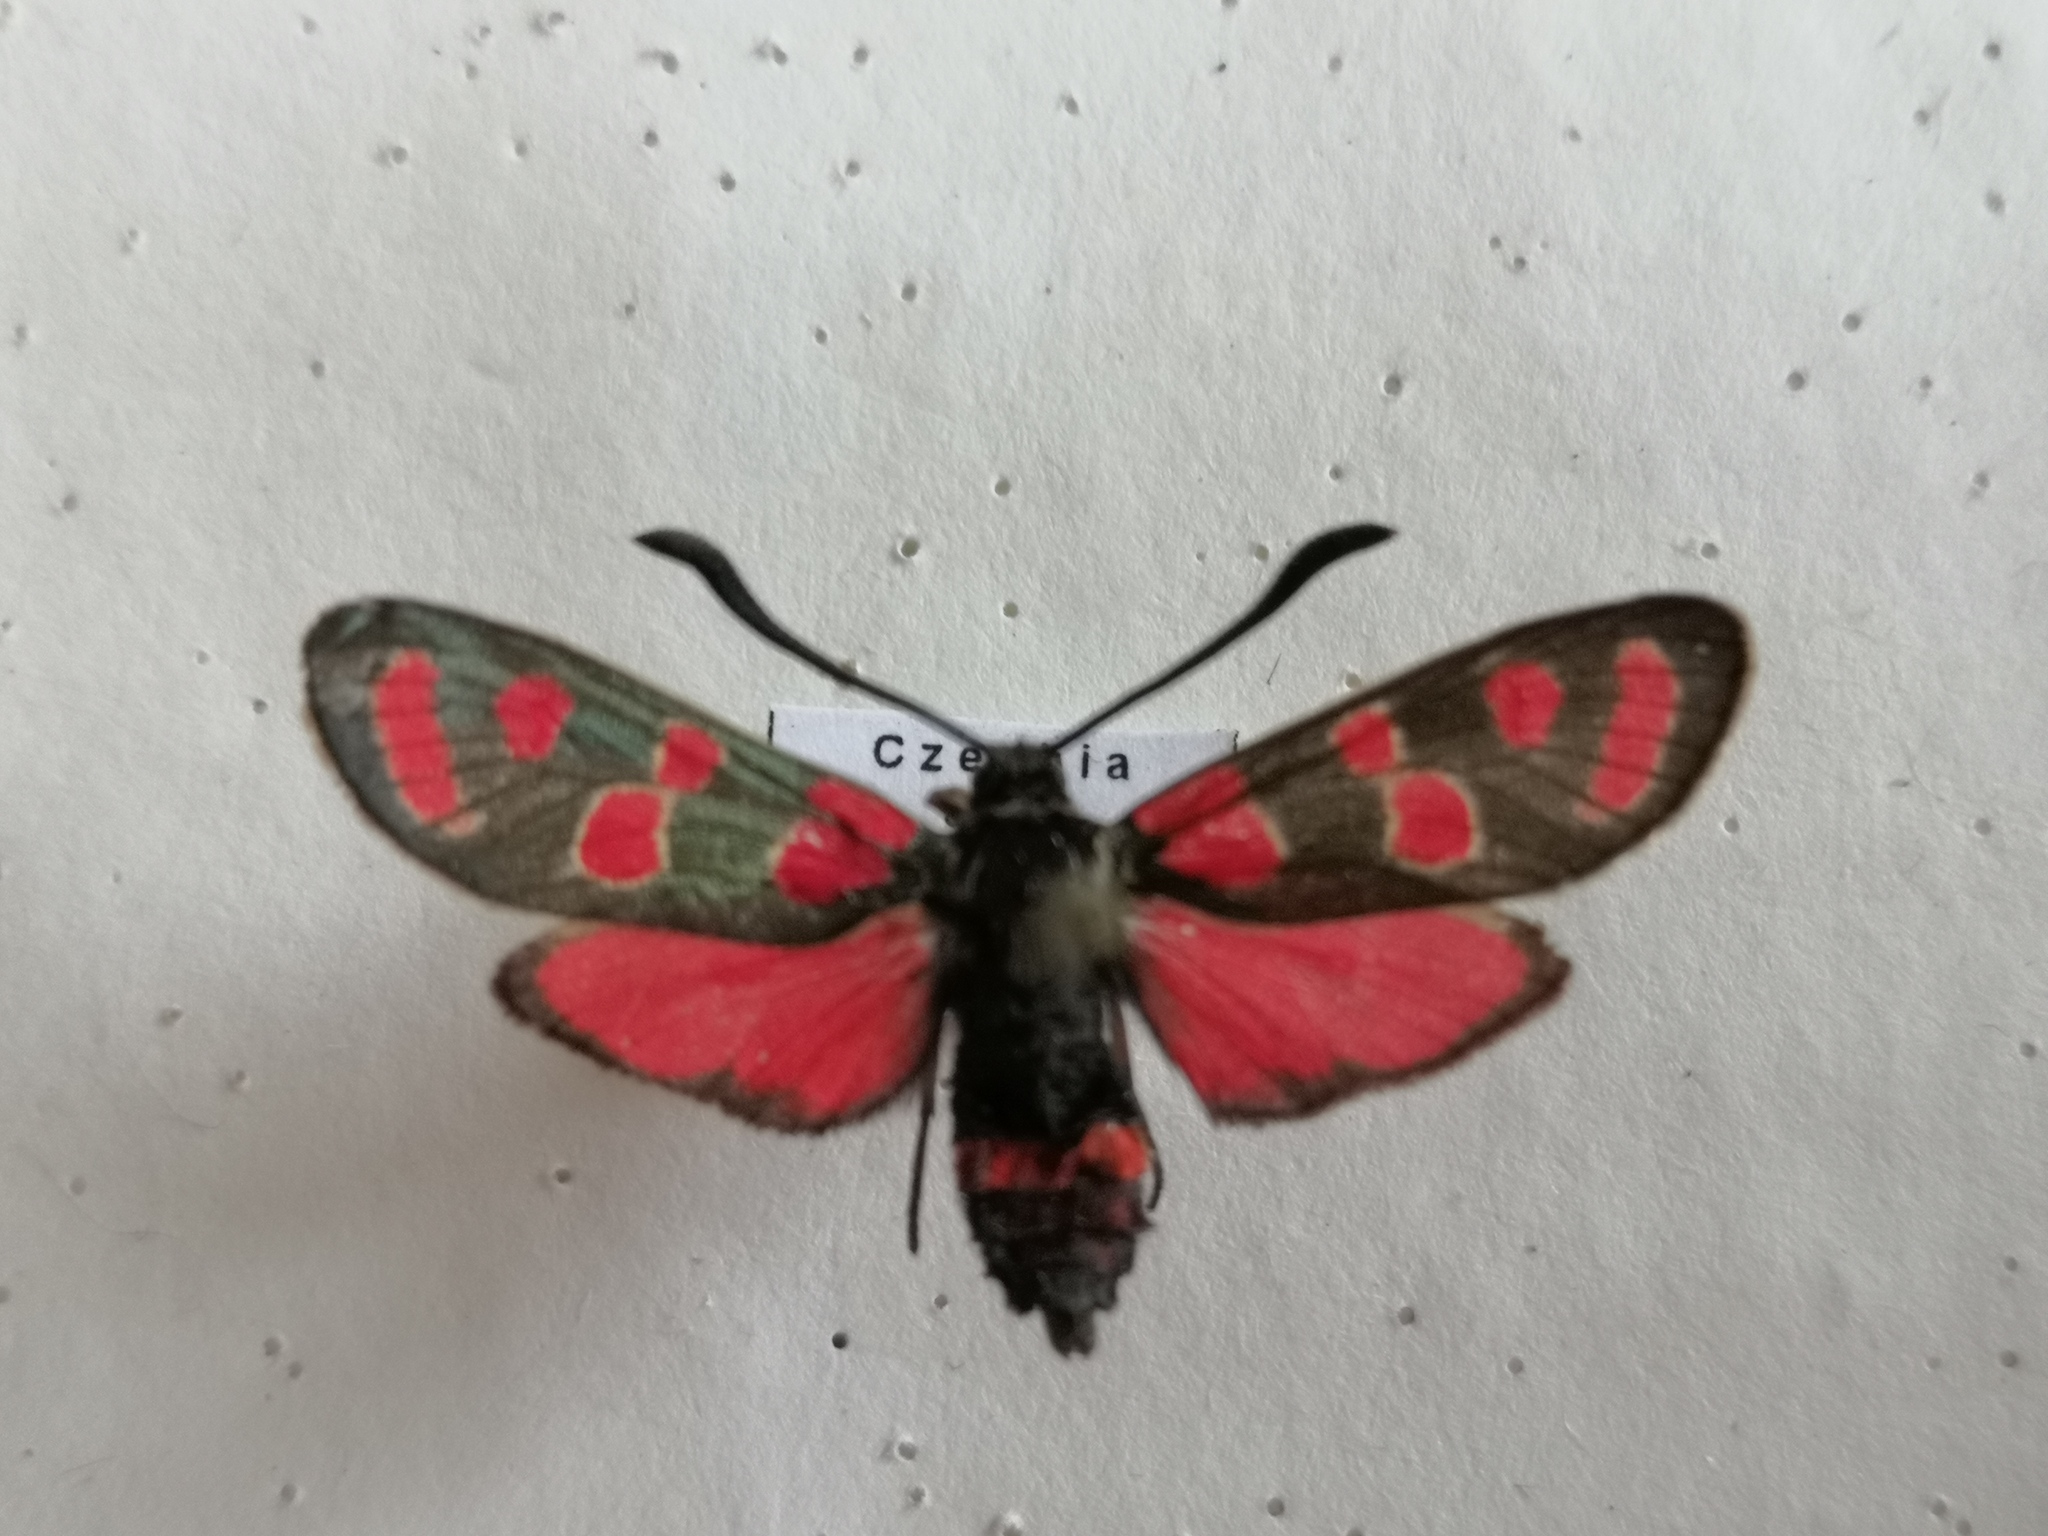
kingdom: Animalia
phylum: Arthropoda
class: Insecta
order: Lepidoptera
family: Zygaenidae
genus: Zygaena
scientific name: Zygaena carniolica
